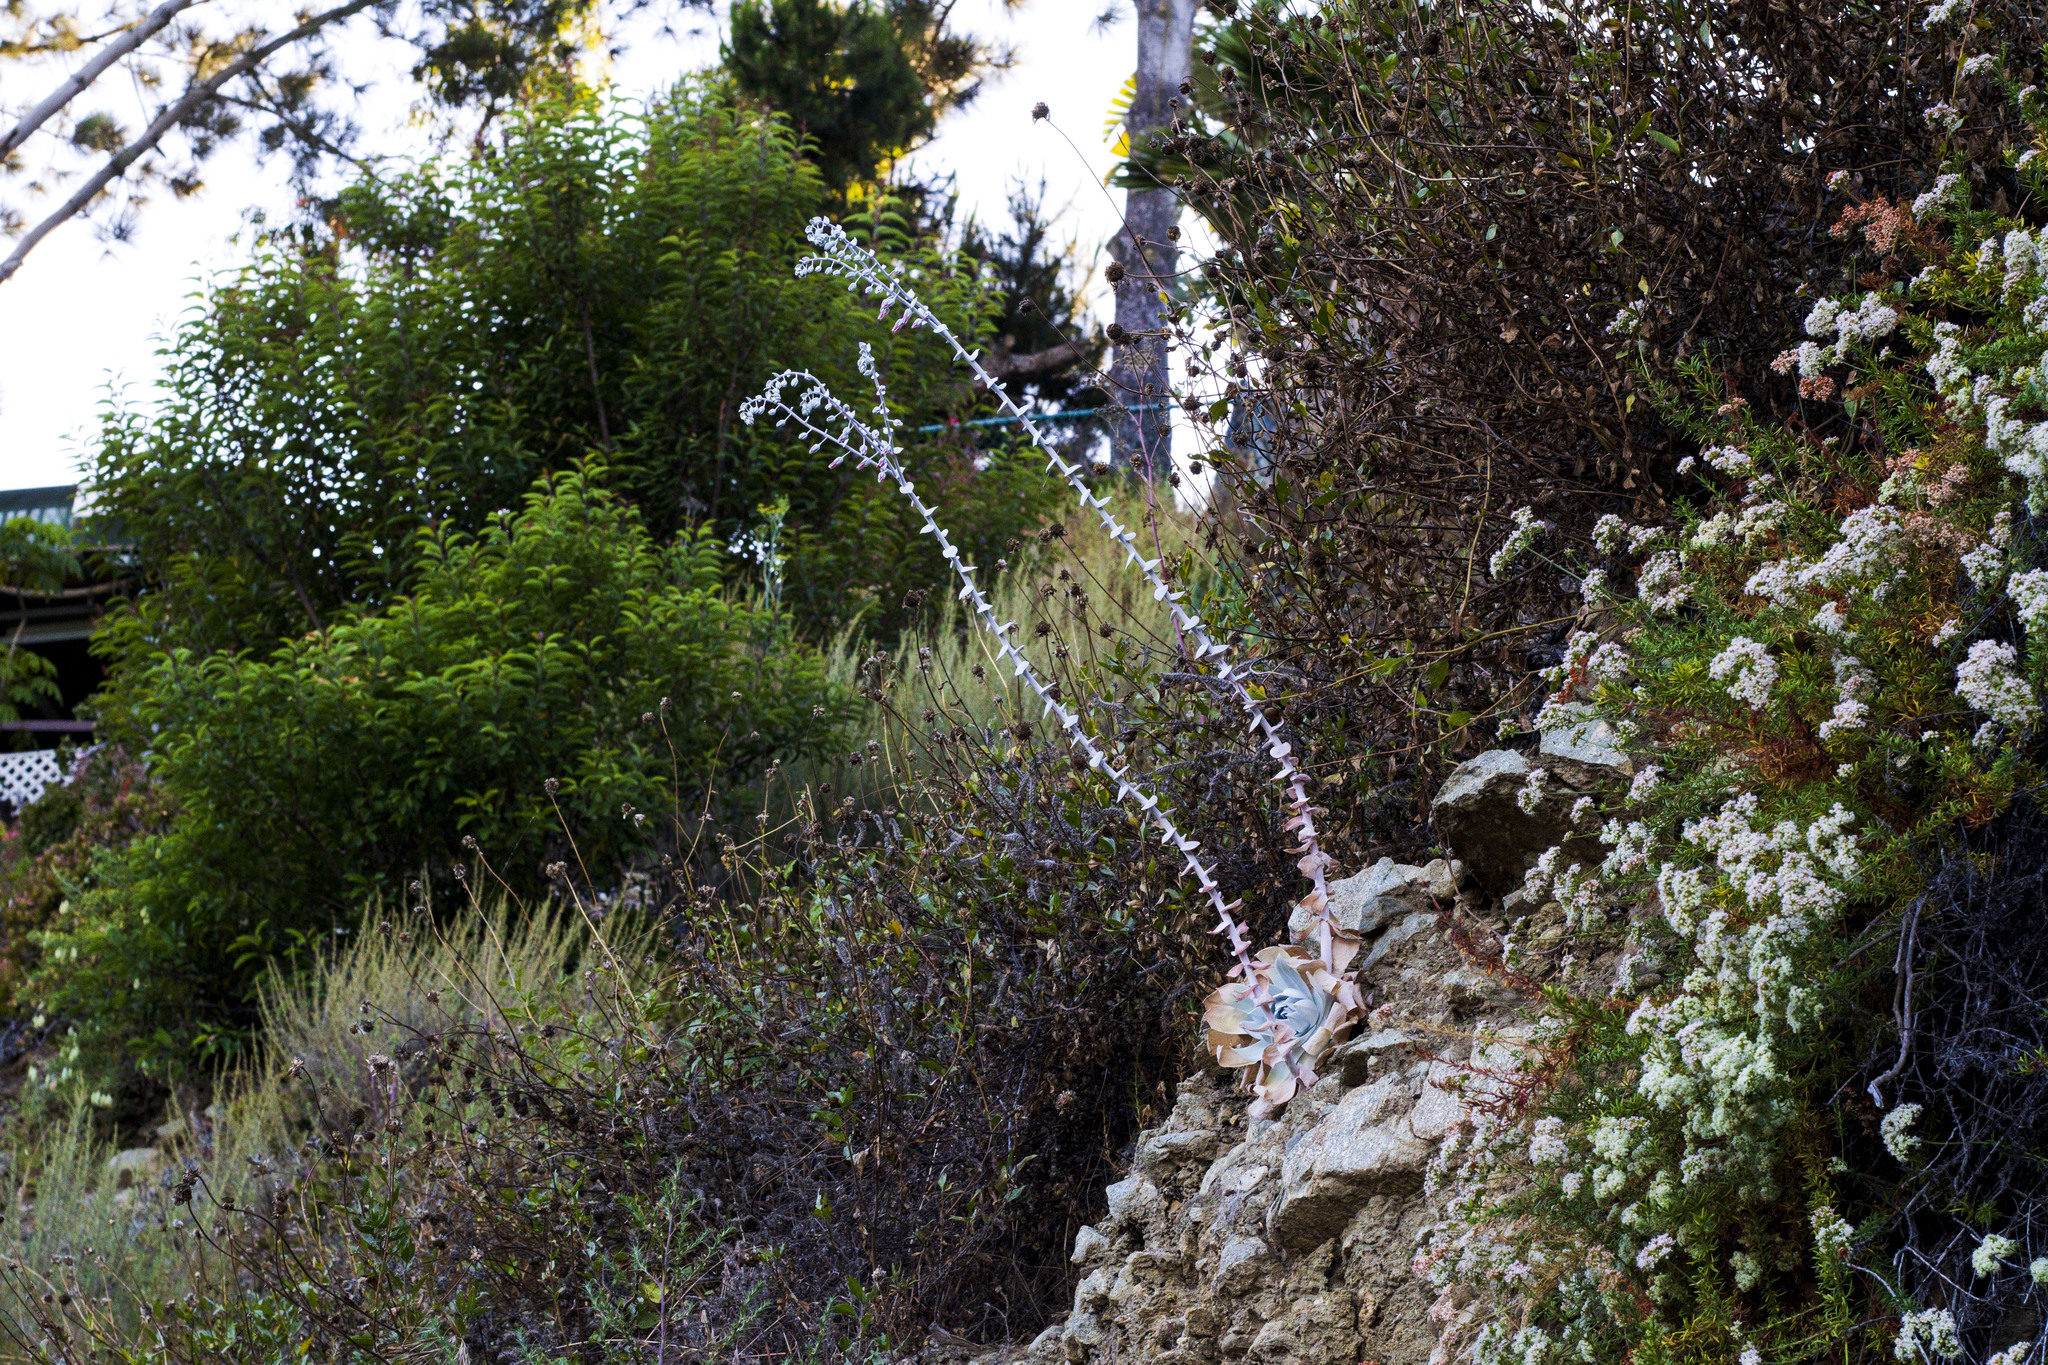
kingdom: Plantae
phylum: Tracheophyta
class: Magnoliopsida
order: Saxifragales
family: Crassulaceae
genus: Dudleya
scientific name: Dudleya pulverulenta
